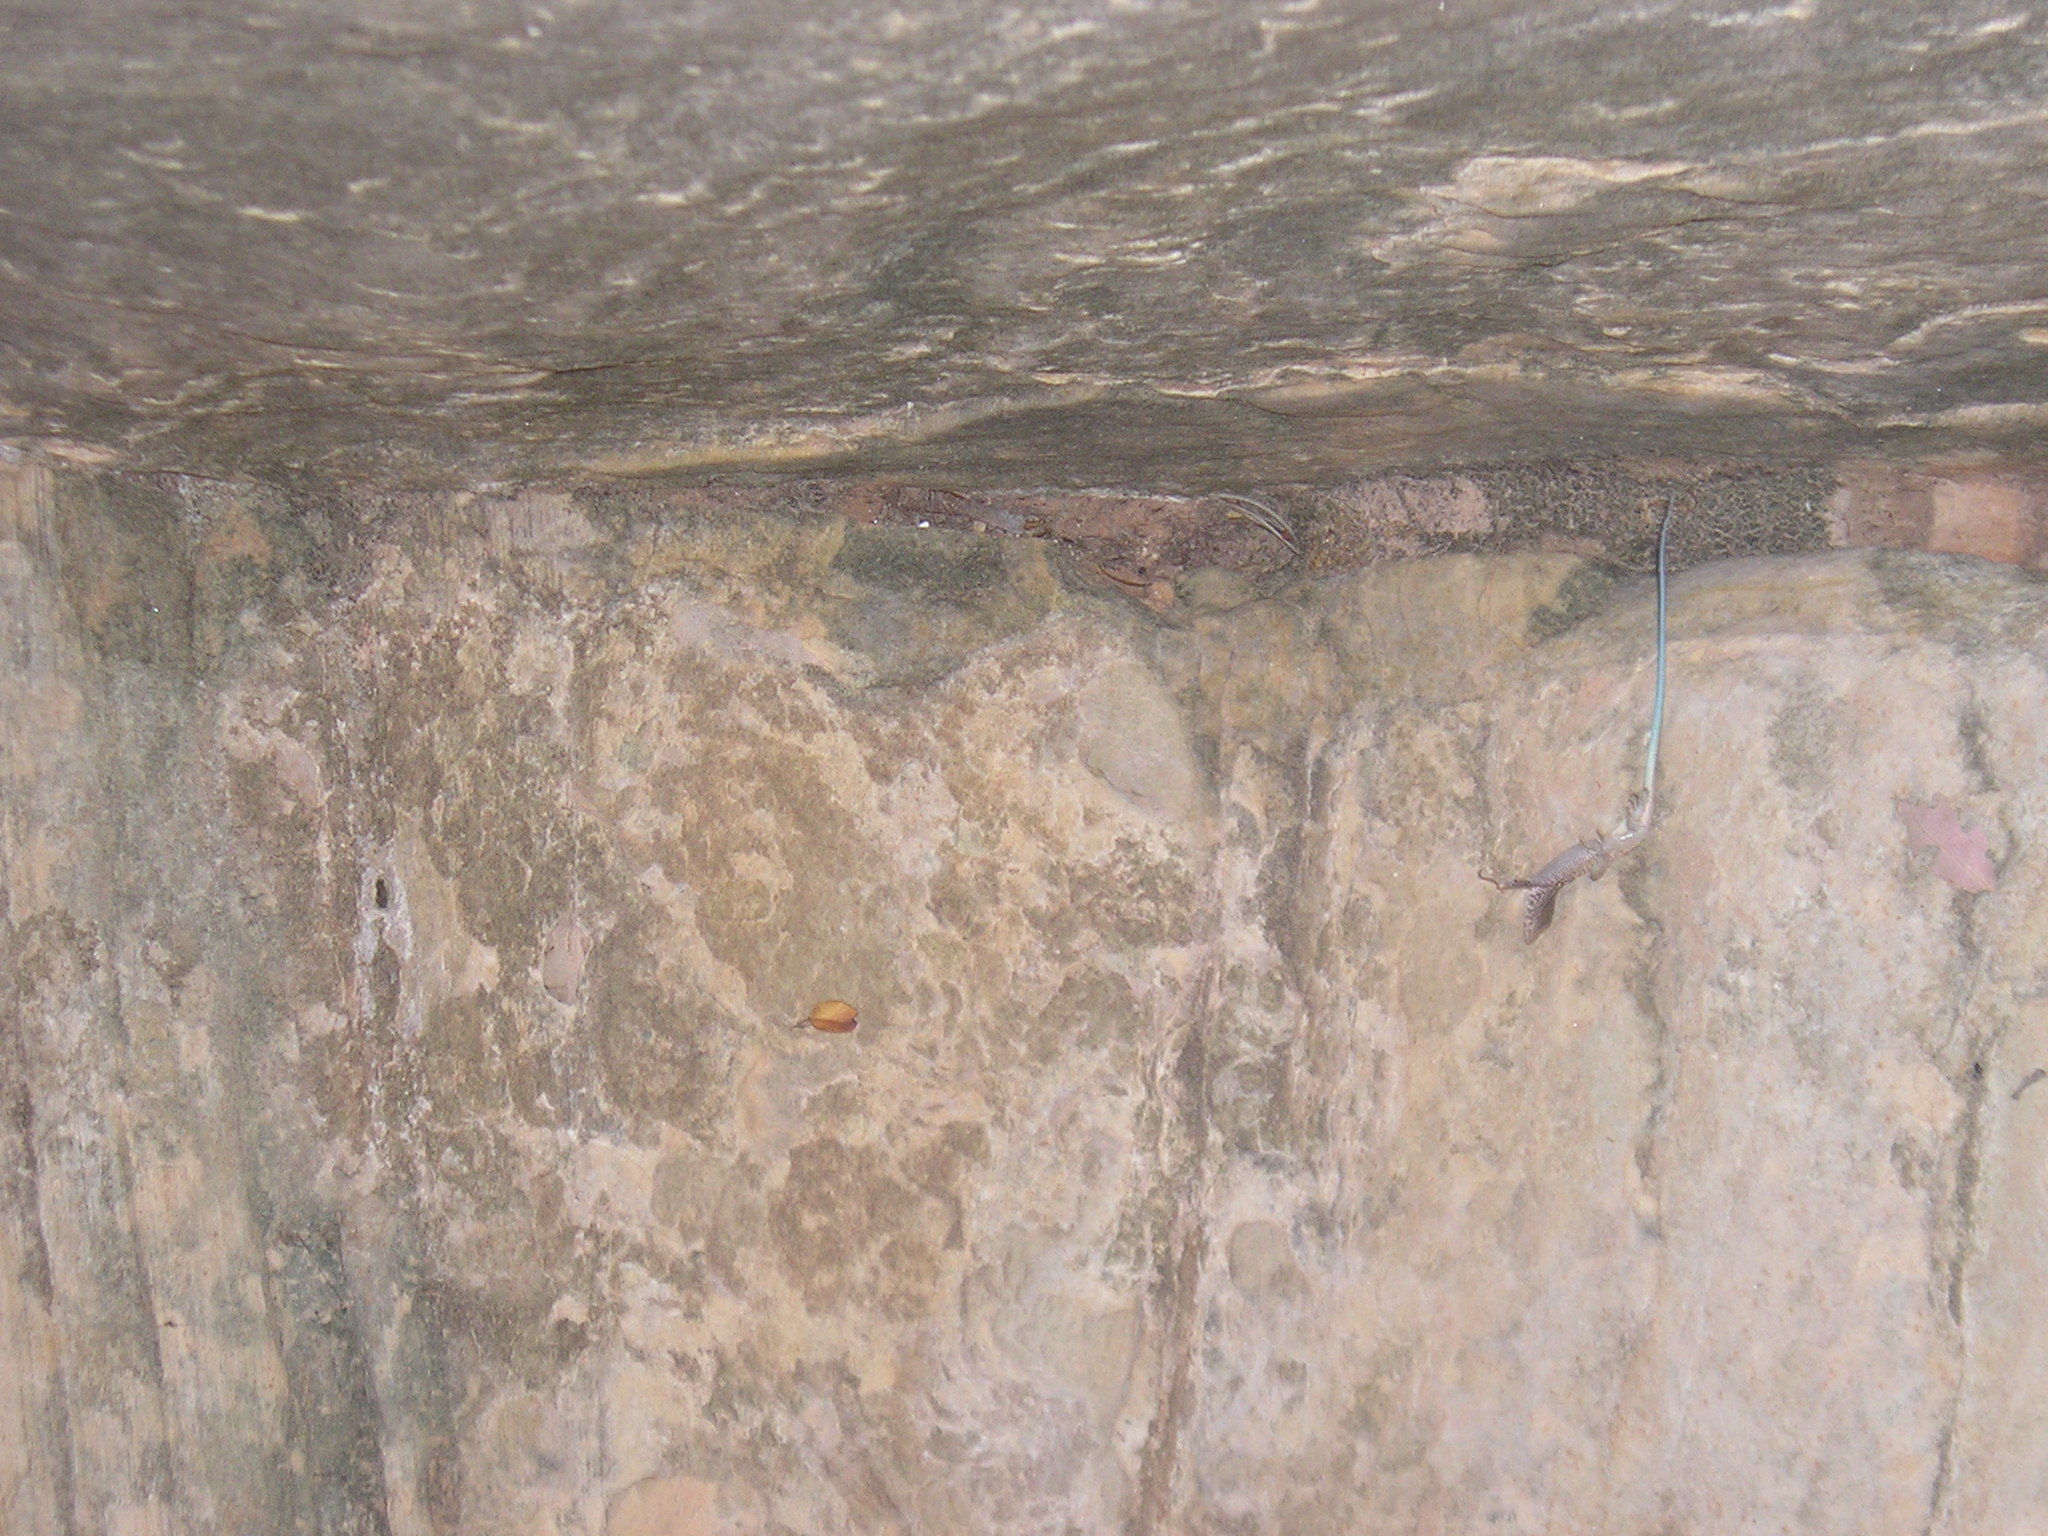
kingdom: Animalia
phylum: Chordata
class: Squamata
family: Teiidae
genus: Aspidoscelis
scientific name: Aspidoscelis tigris
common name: Tiger whiptail
